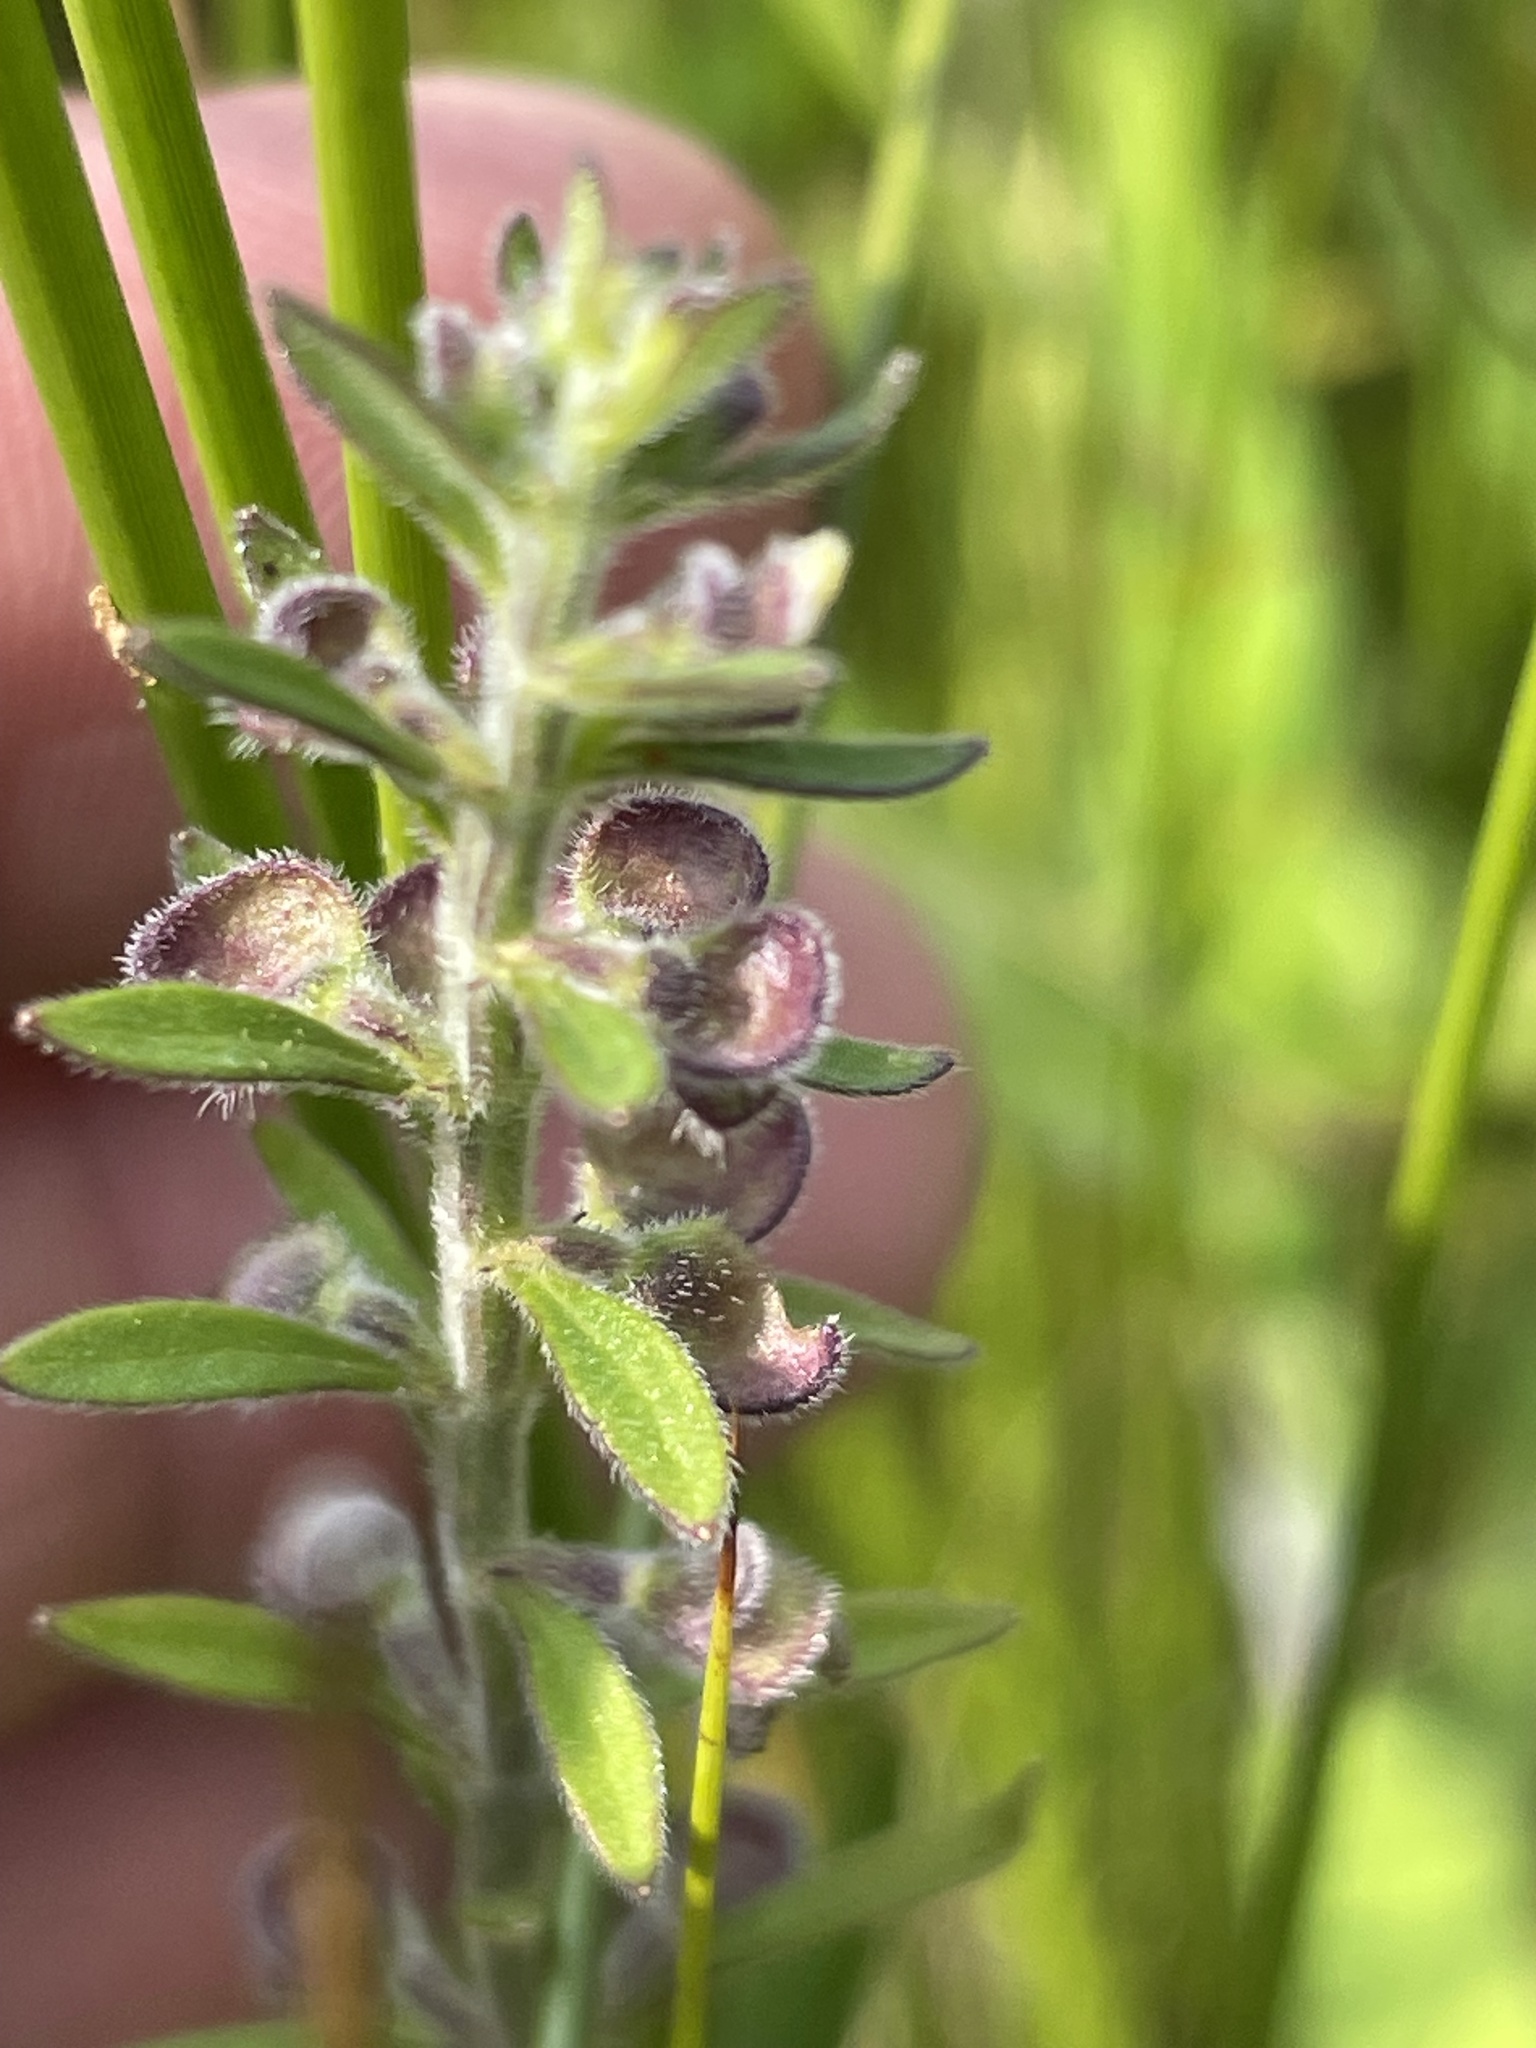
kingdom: Plantae
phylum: Tracheophyta
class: Magnoliopsida
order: Lamiales
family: Lamiaceae
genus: Scutellaria
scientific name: Scutellaria integrifolia
